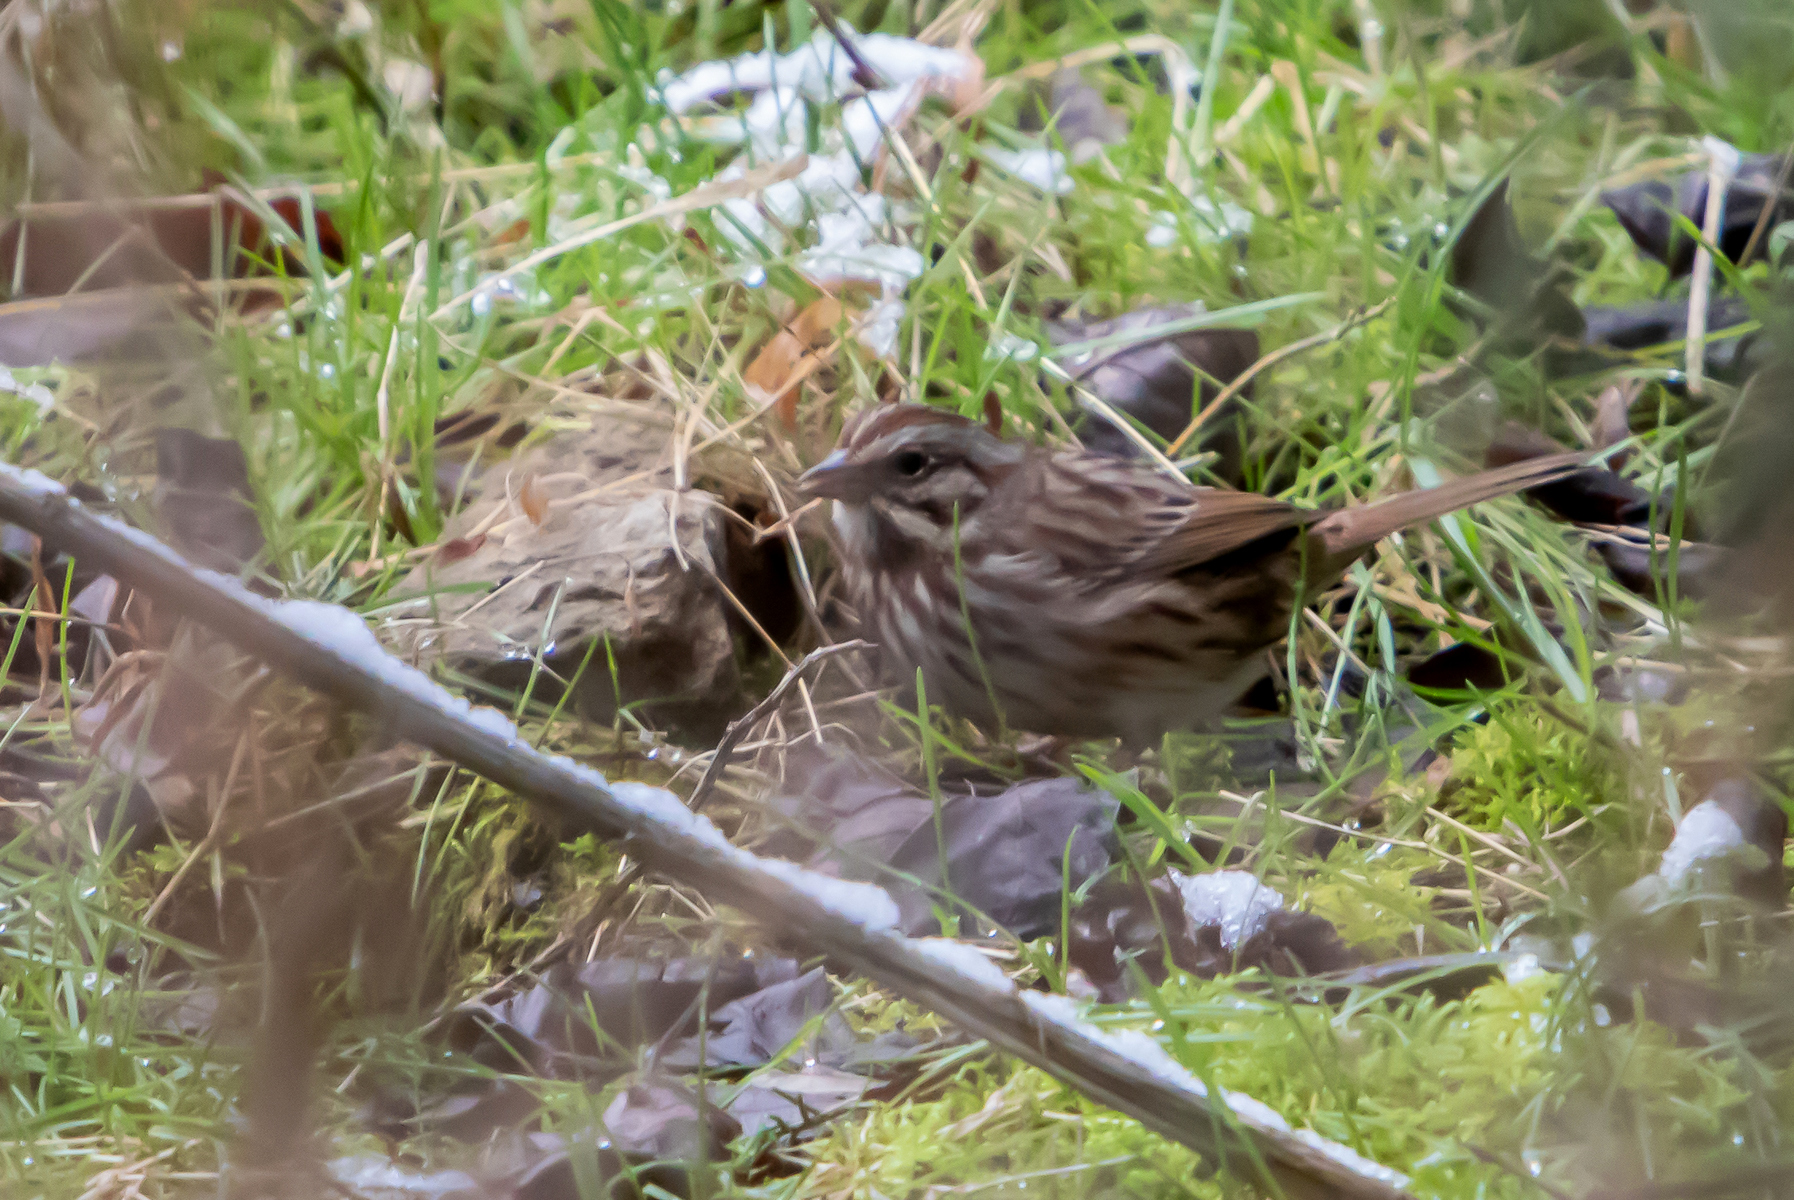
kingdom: Animalia
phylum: Chordata
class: Aves
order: Passeriformes
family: Passerellidae
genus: Melospiza
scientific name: Melospiza melodia
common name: Song sparrow
